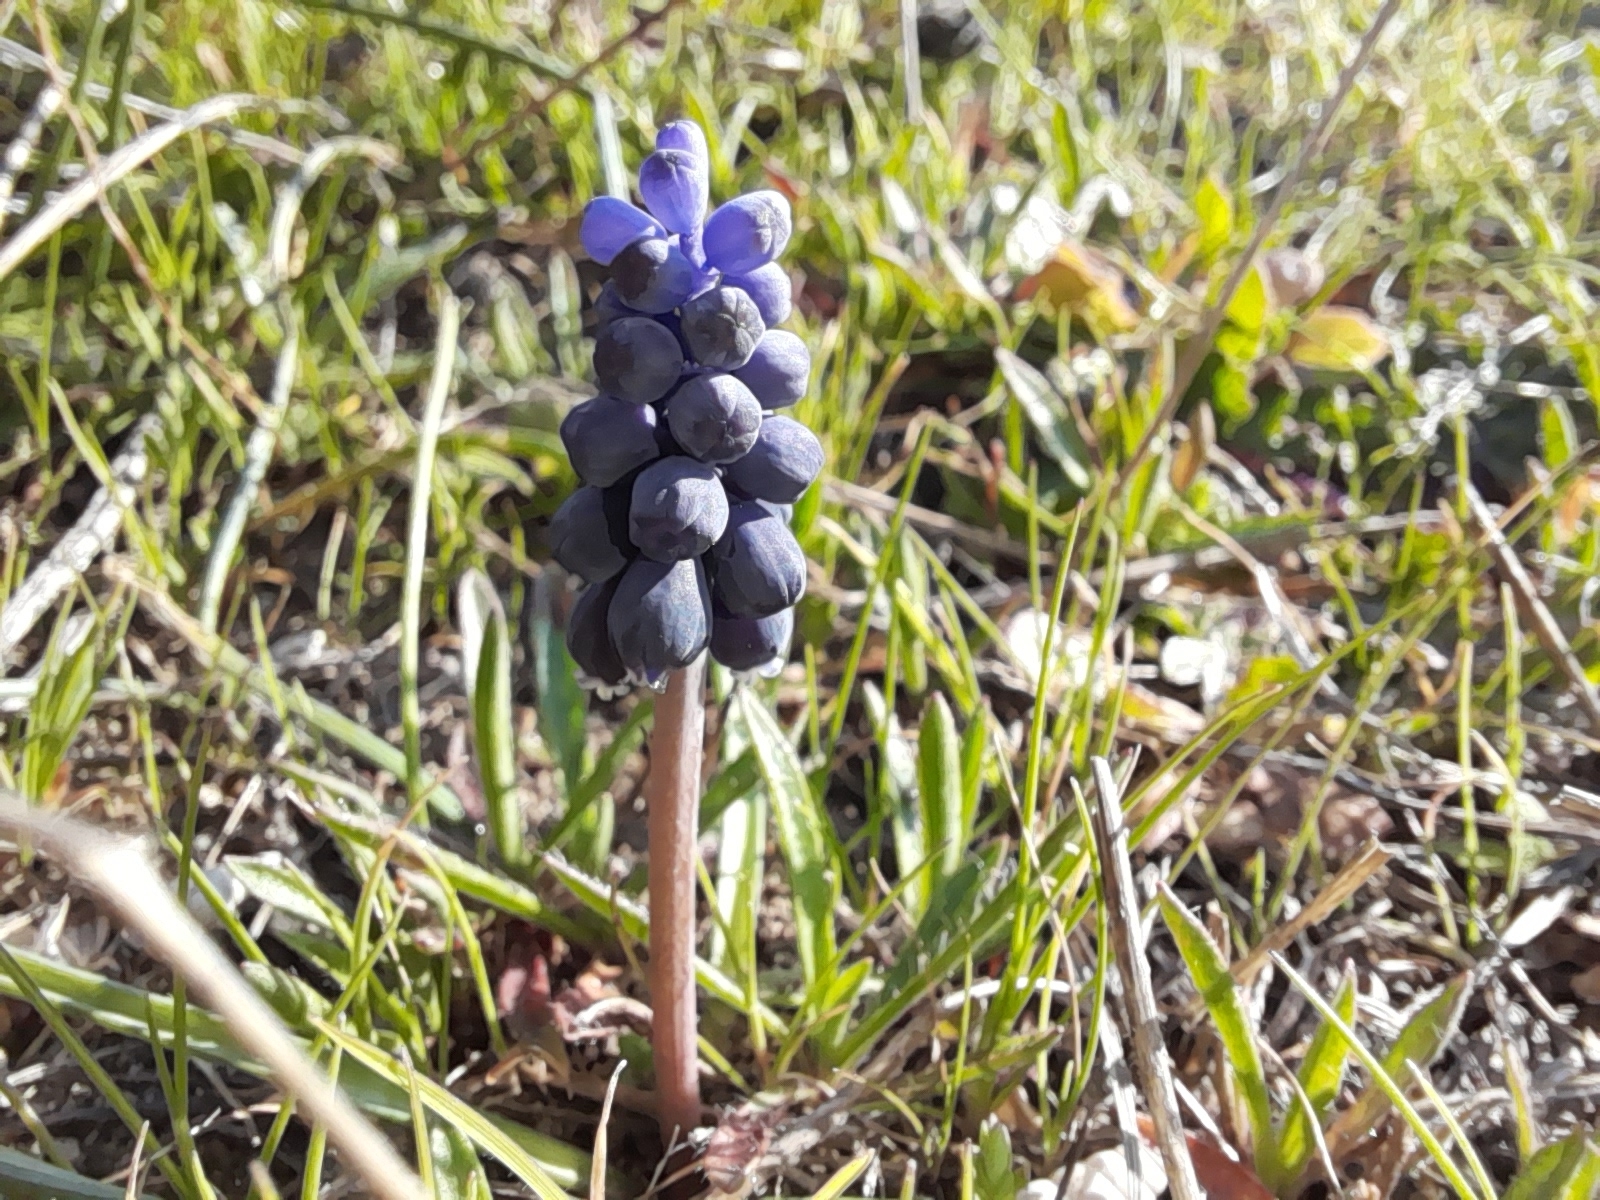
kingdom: Plantae
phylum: Tracheophyta
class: Liliopsida
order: Asparagales
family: Asparagaceae
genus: Muscari
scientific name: Muscari neglectum
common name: Grape-hyacinth
